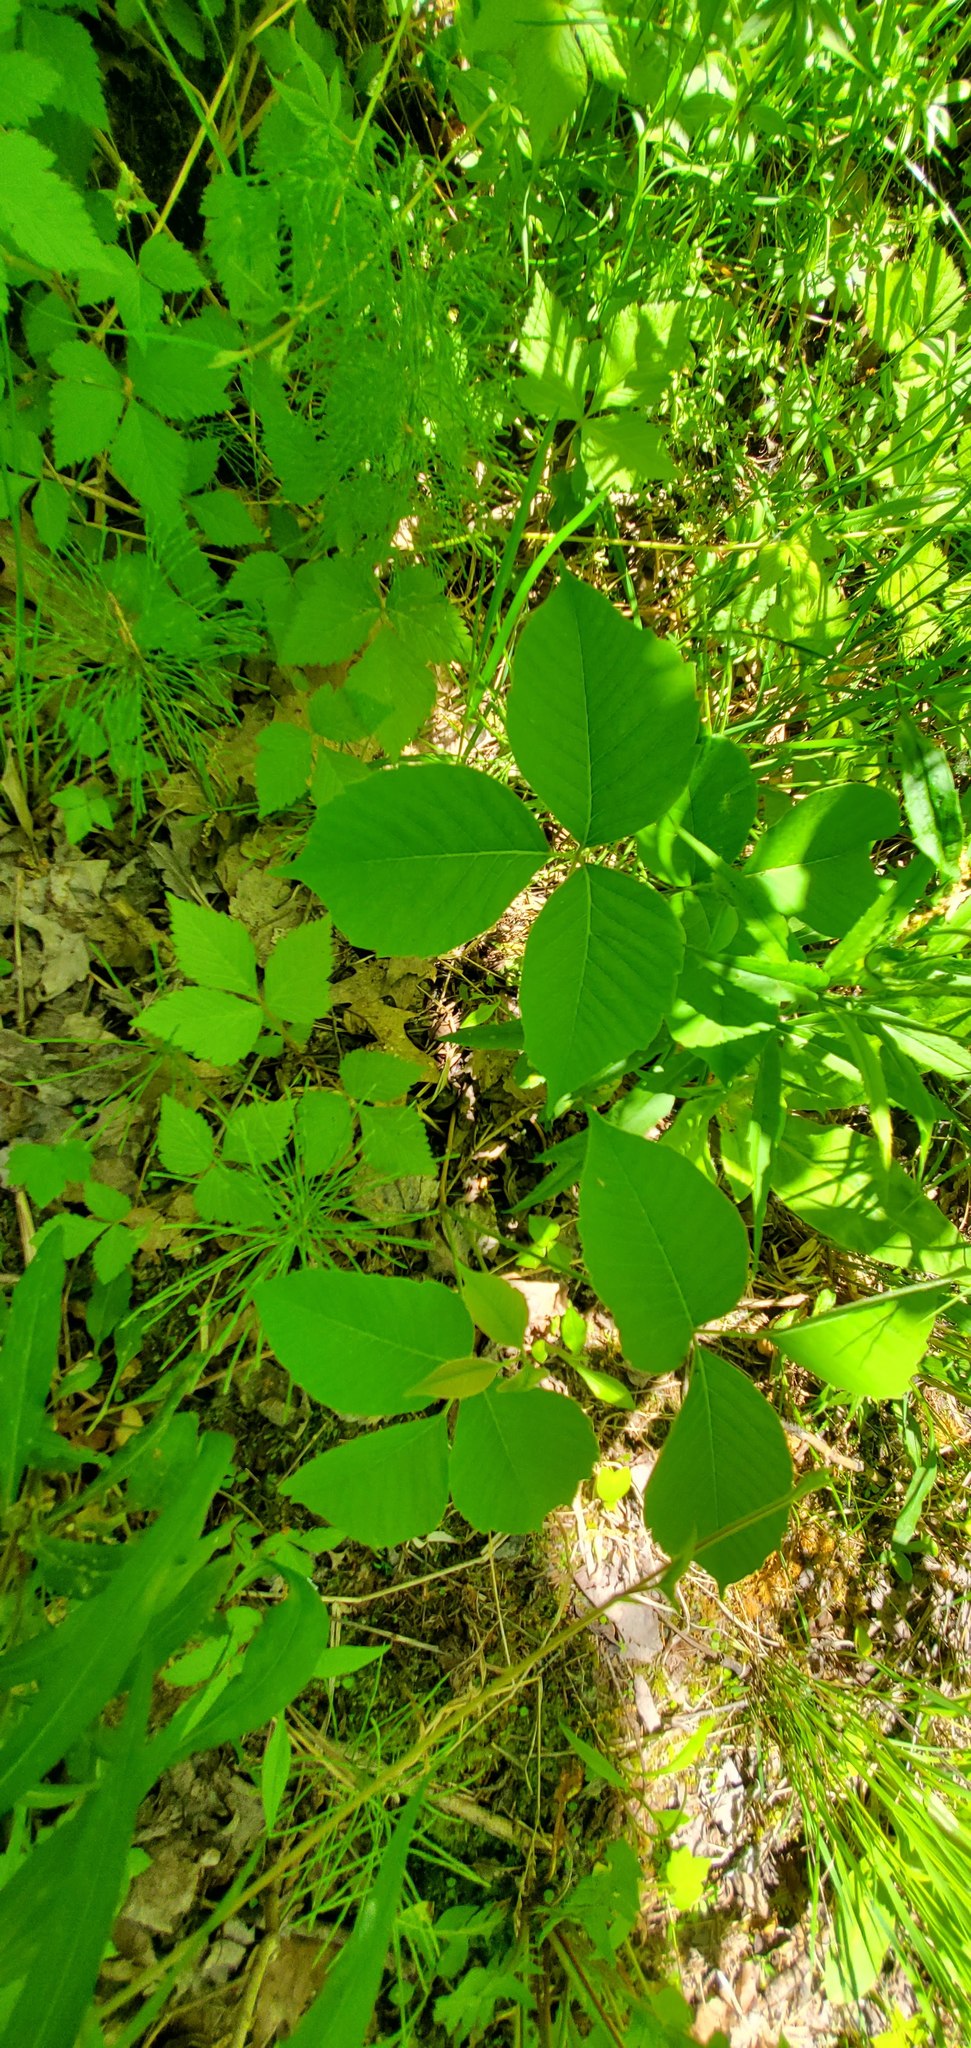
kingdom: Plantae
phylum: Tracheophyta
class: Magnoliopsida
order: Sapindales
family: Anacardiaceae
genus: Toxicodendron
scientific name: Toxicodendron rydbergii
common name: Rydberg's poison-ivy
